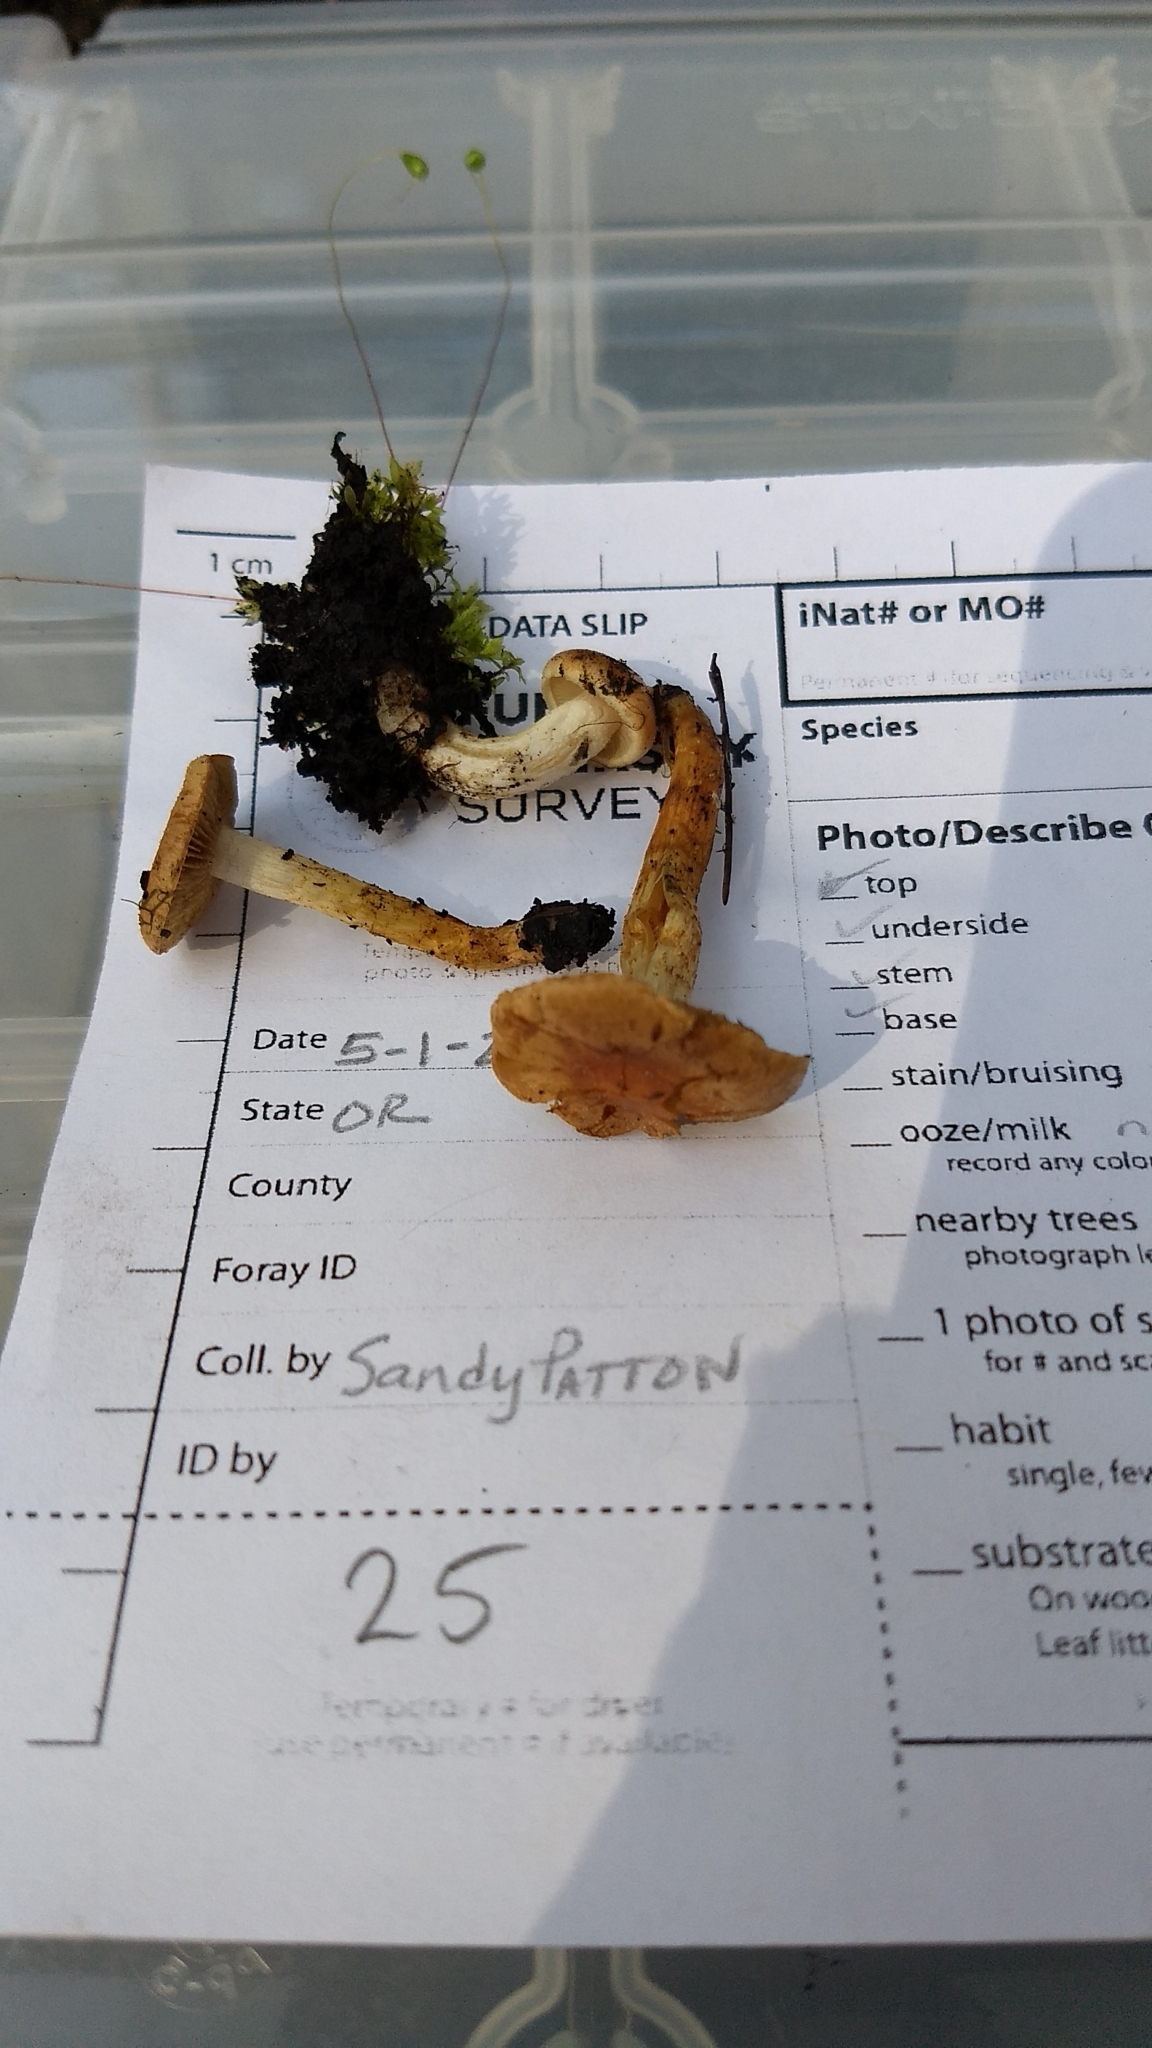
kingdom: Fungi
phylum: Basidiomycota
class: Agaricomycetes
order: Agaricales
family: Strophariaceae
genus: Pholiota
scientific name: Pholiota molesta
